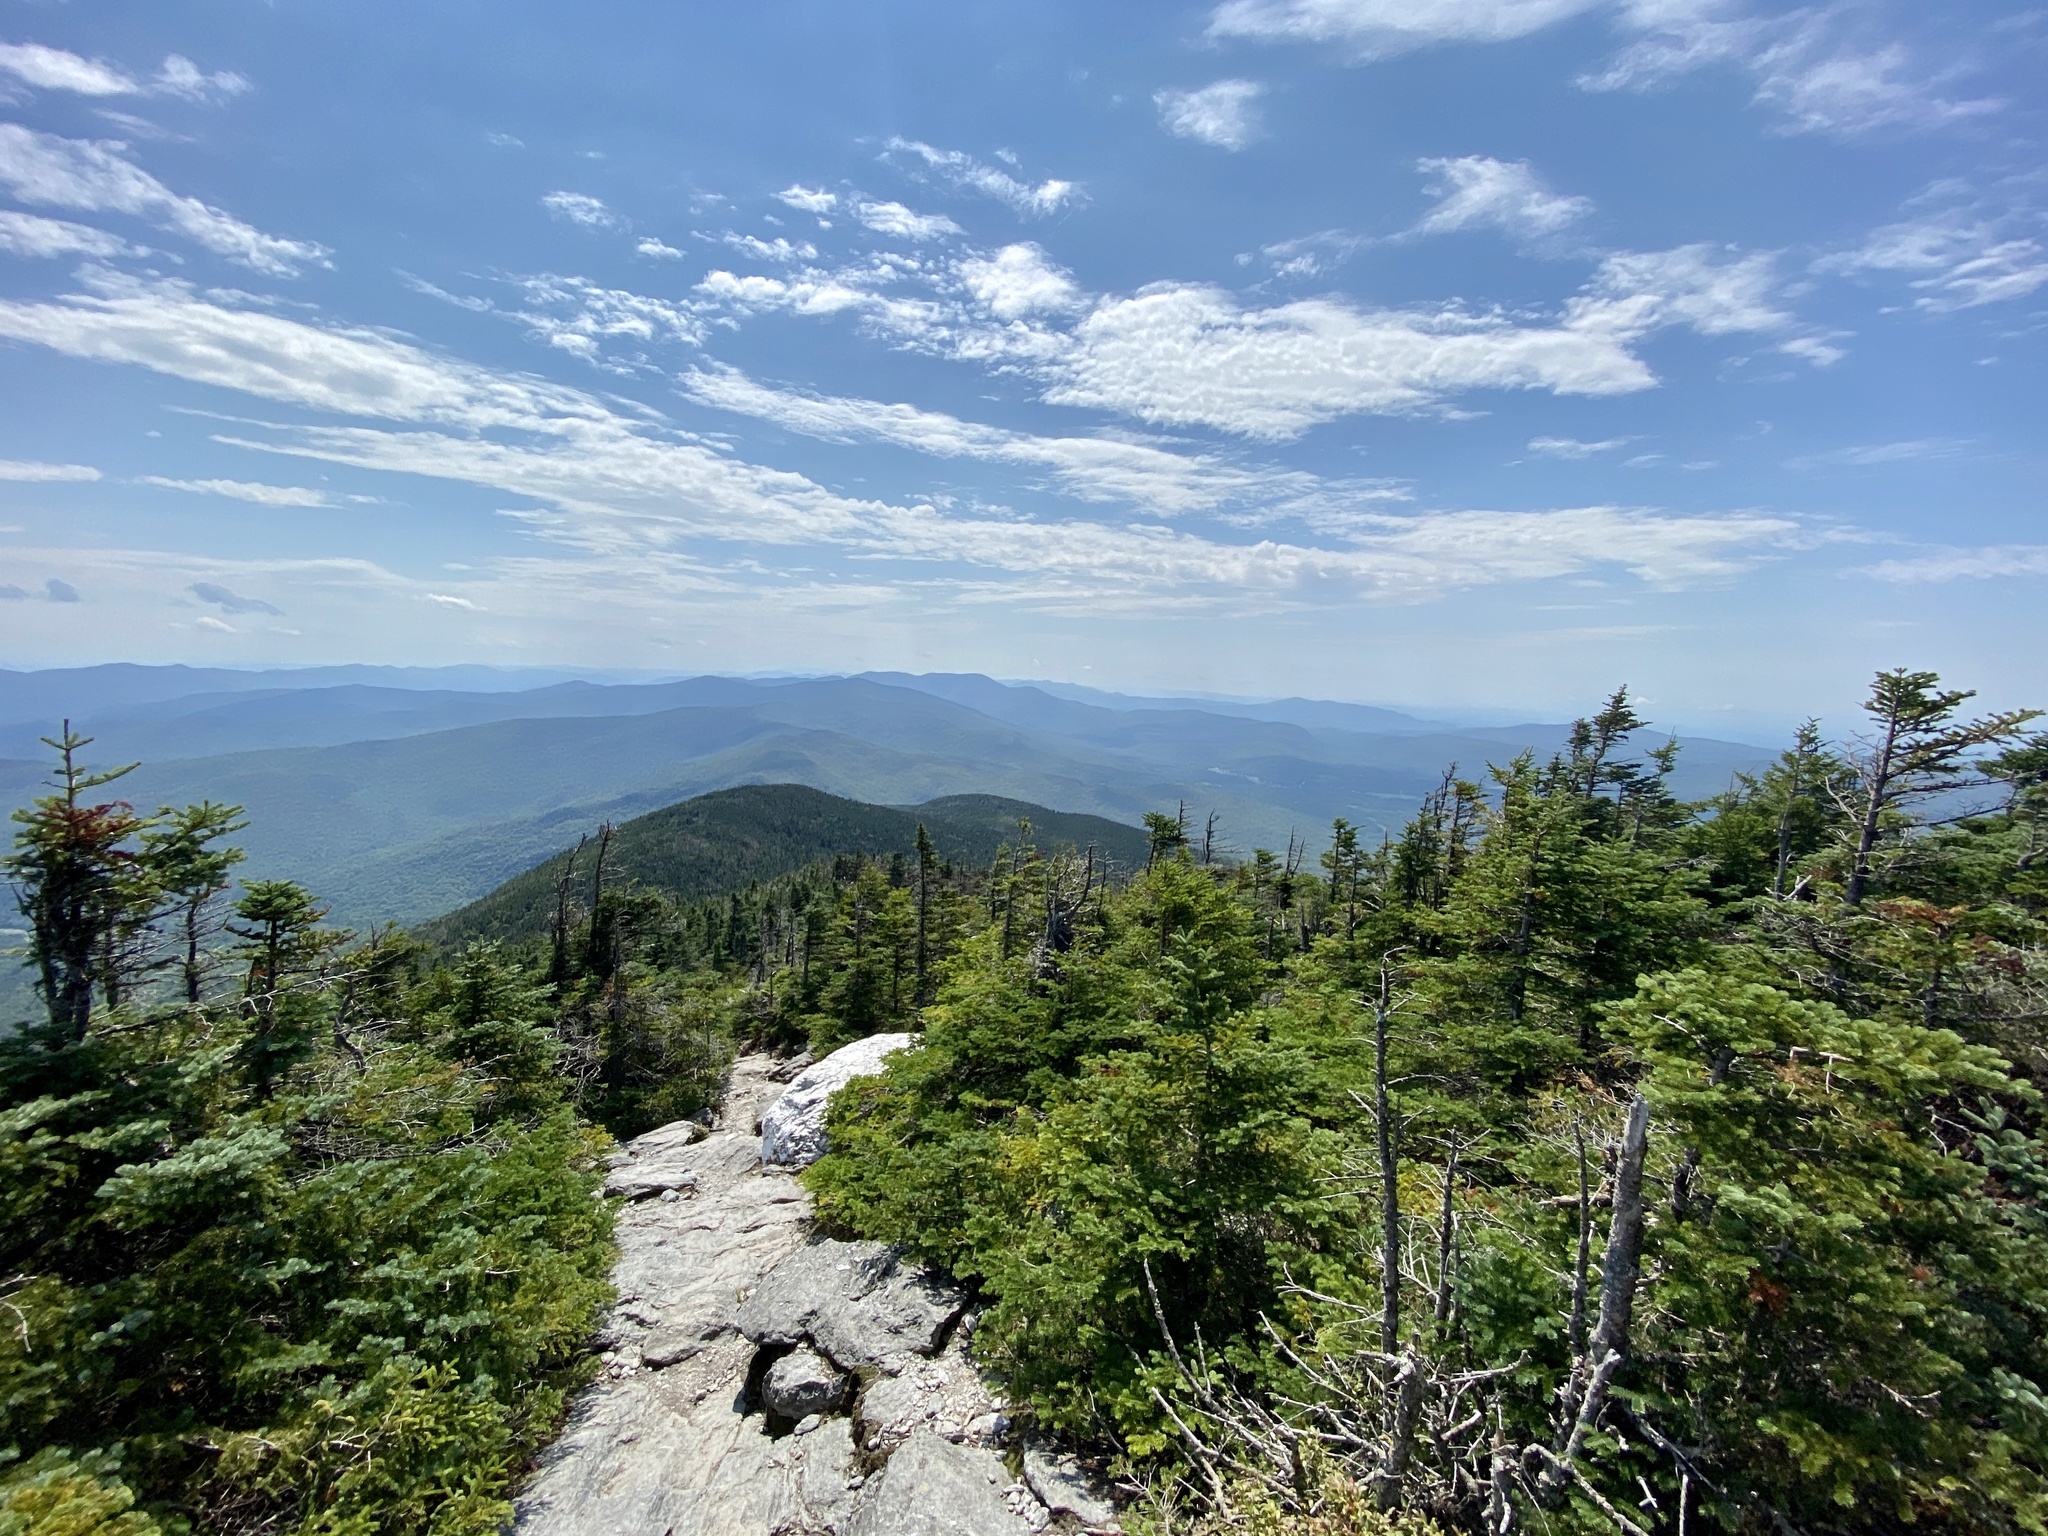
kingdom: Plantae
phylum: Tracheophyta
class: Pinopsida
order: Pinales
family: Pinaceae
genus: Abies
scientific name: Abies balsamea
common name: Balsam fir
